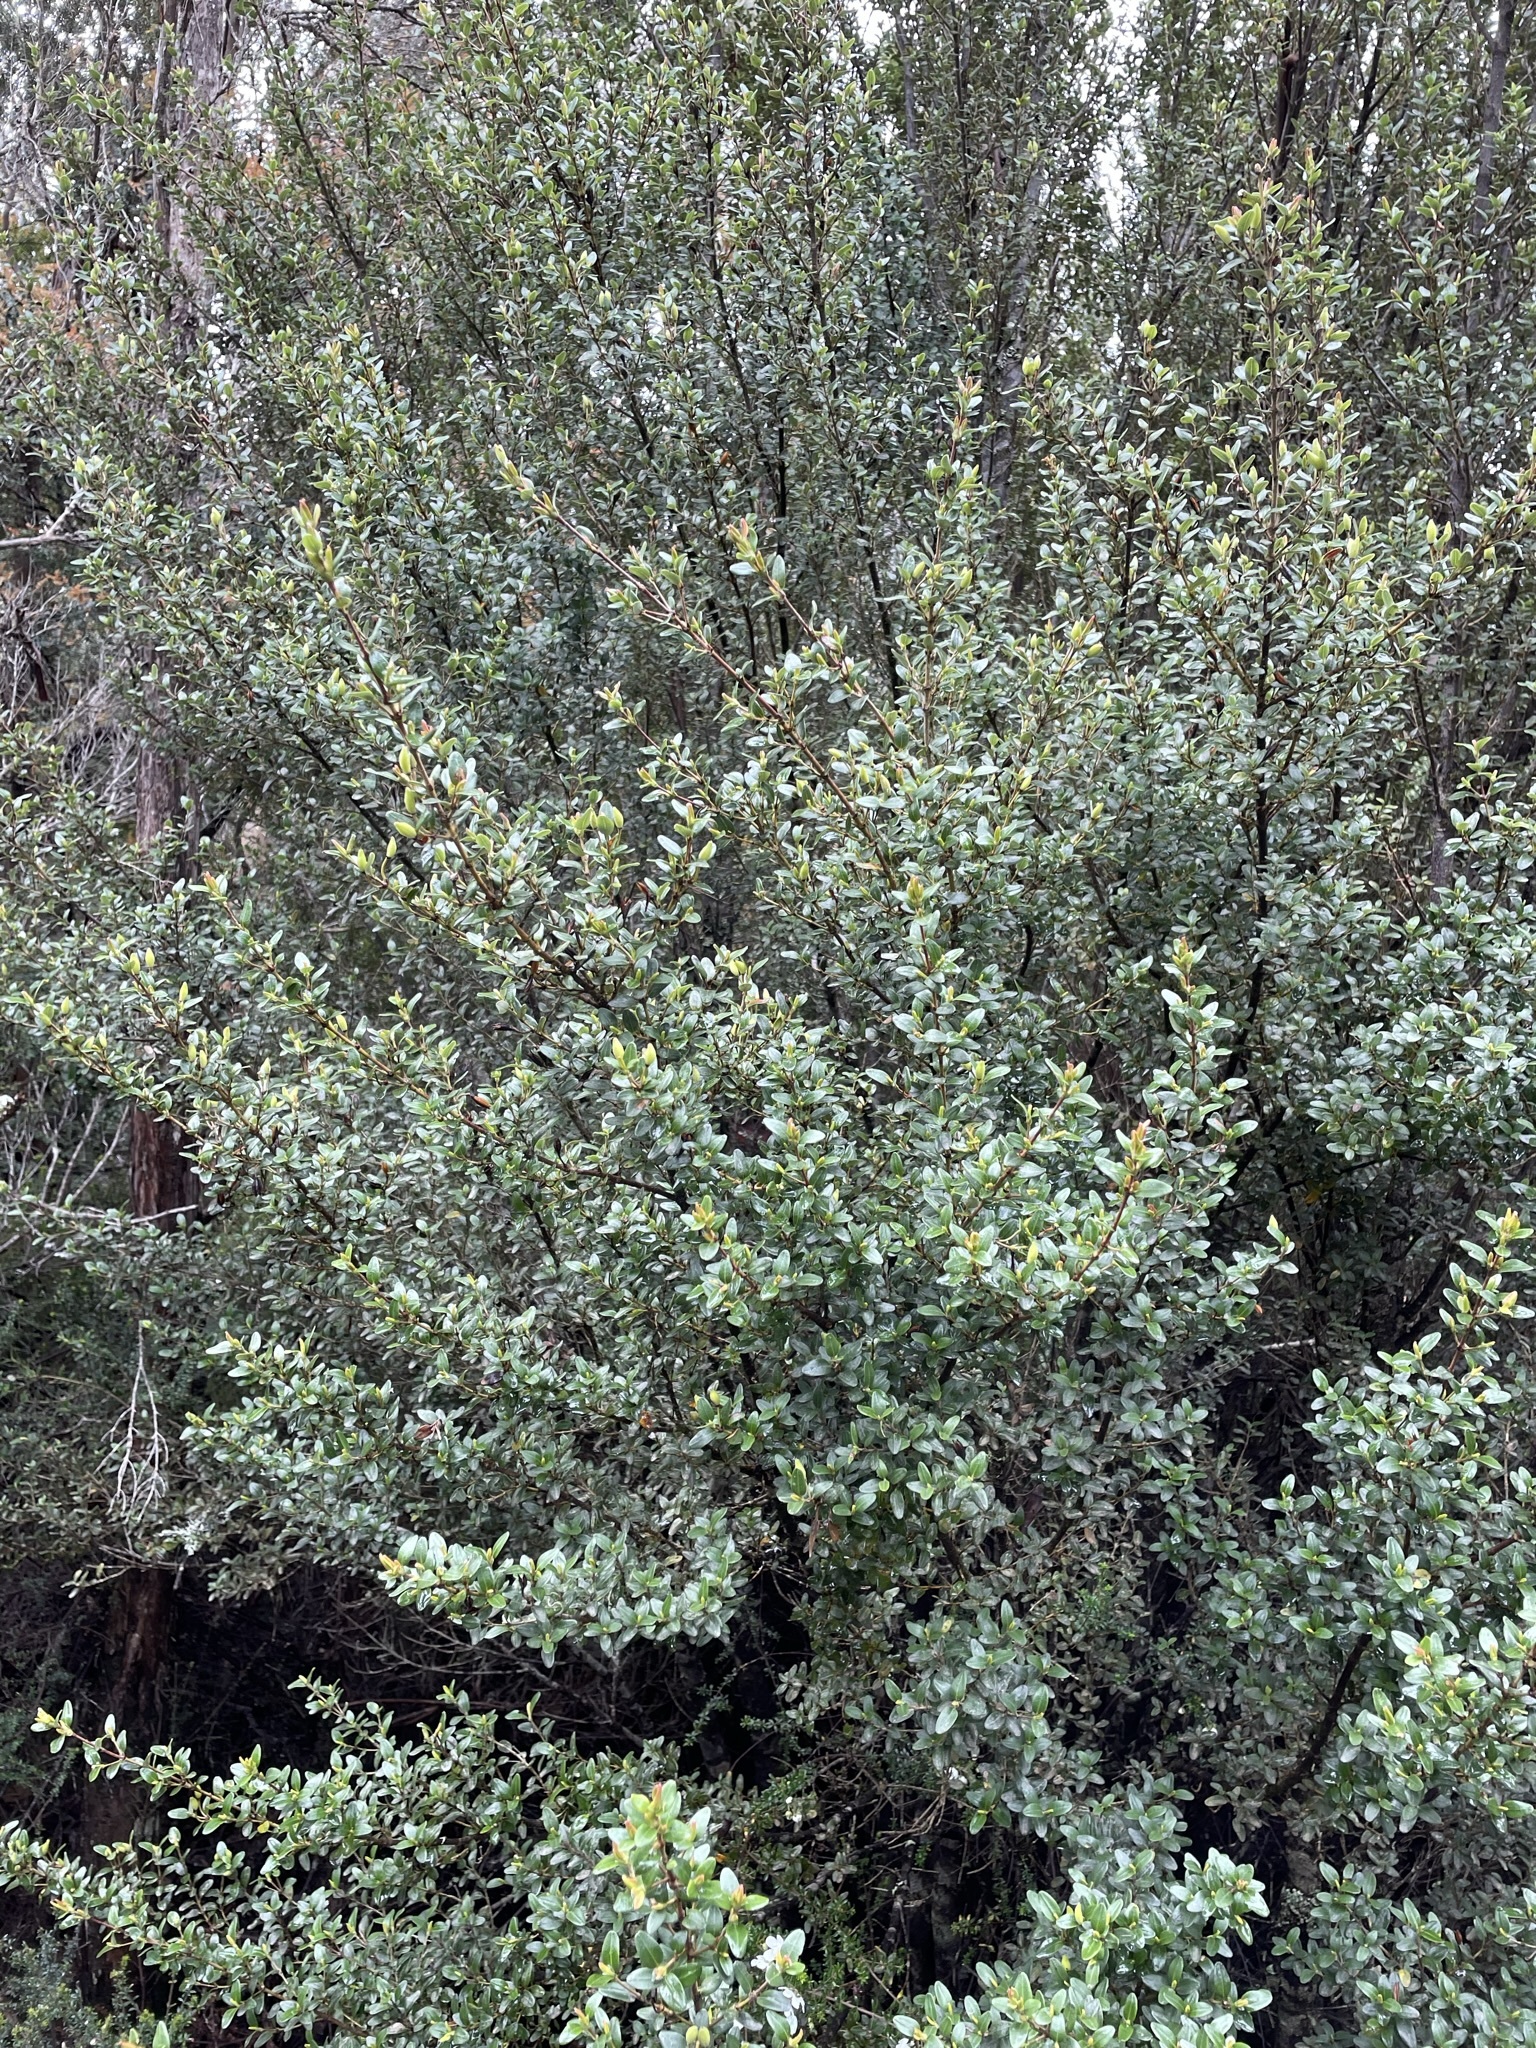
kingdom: Plantae
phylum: Tracheophyta
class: Magnoliopsida
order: Oxalidales
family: Cunoniaceae
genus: Eucryphia
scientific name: Eucryphia milliganii
